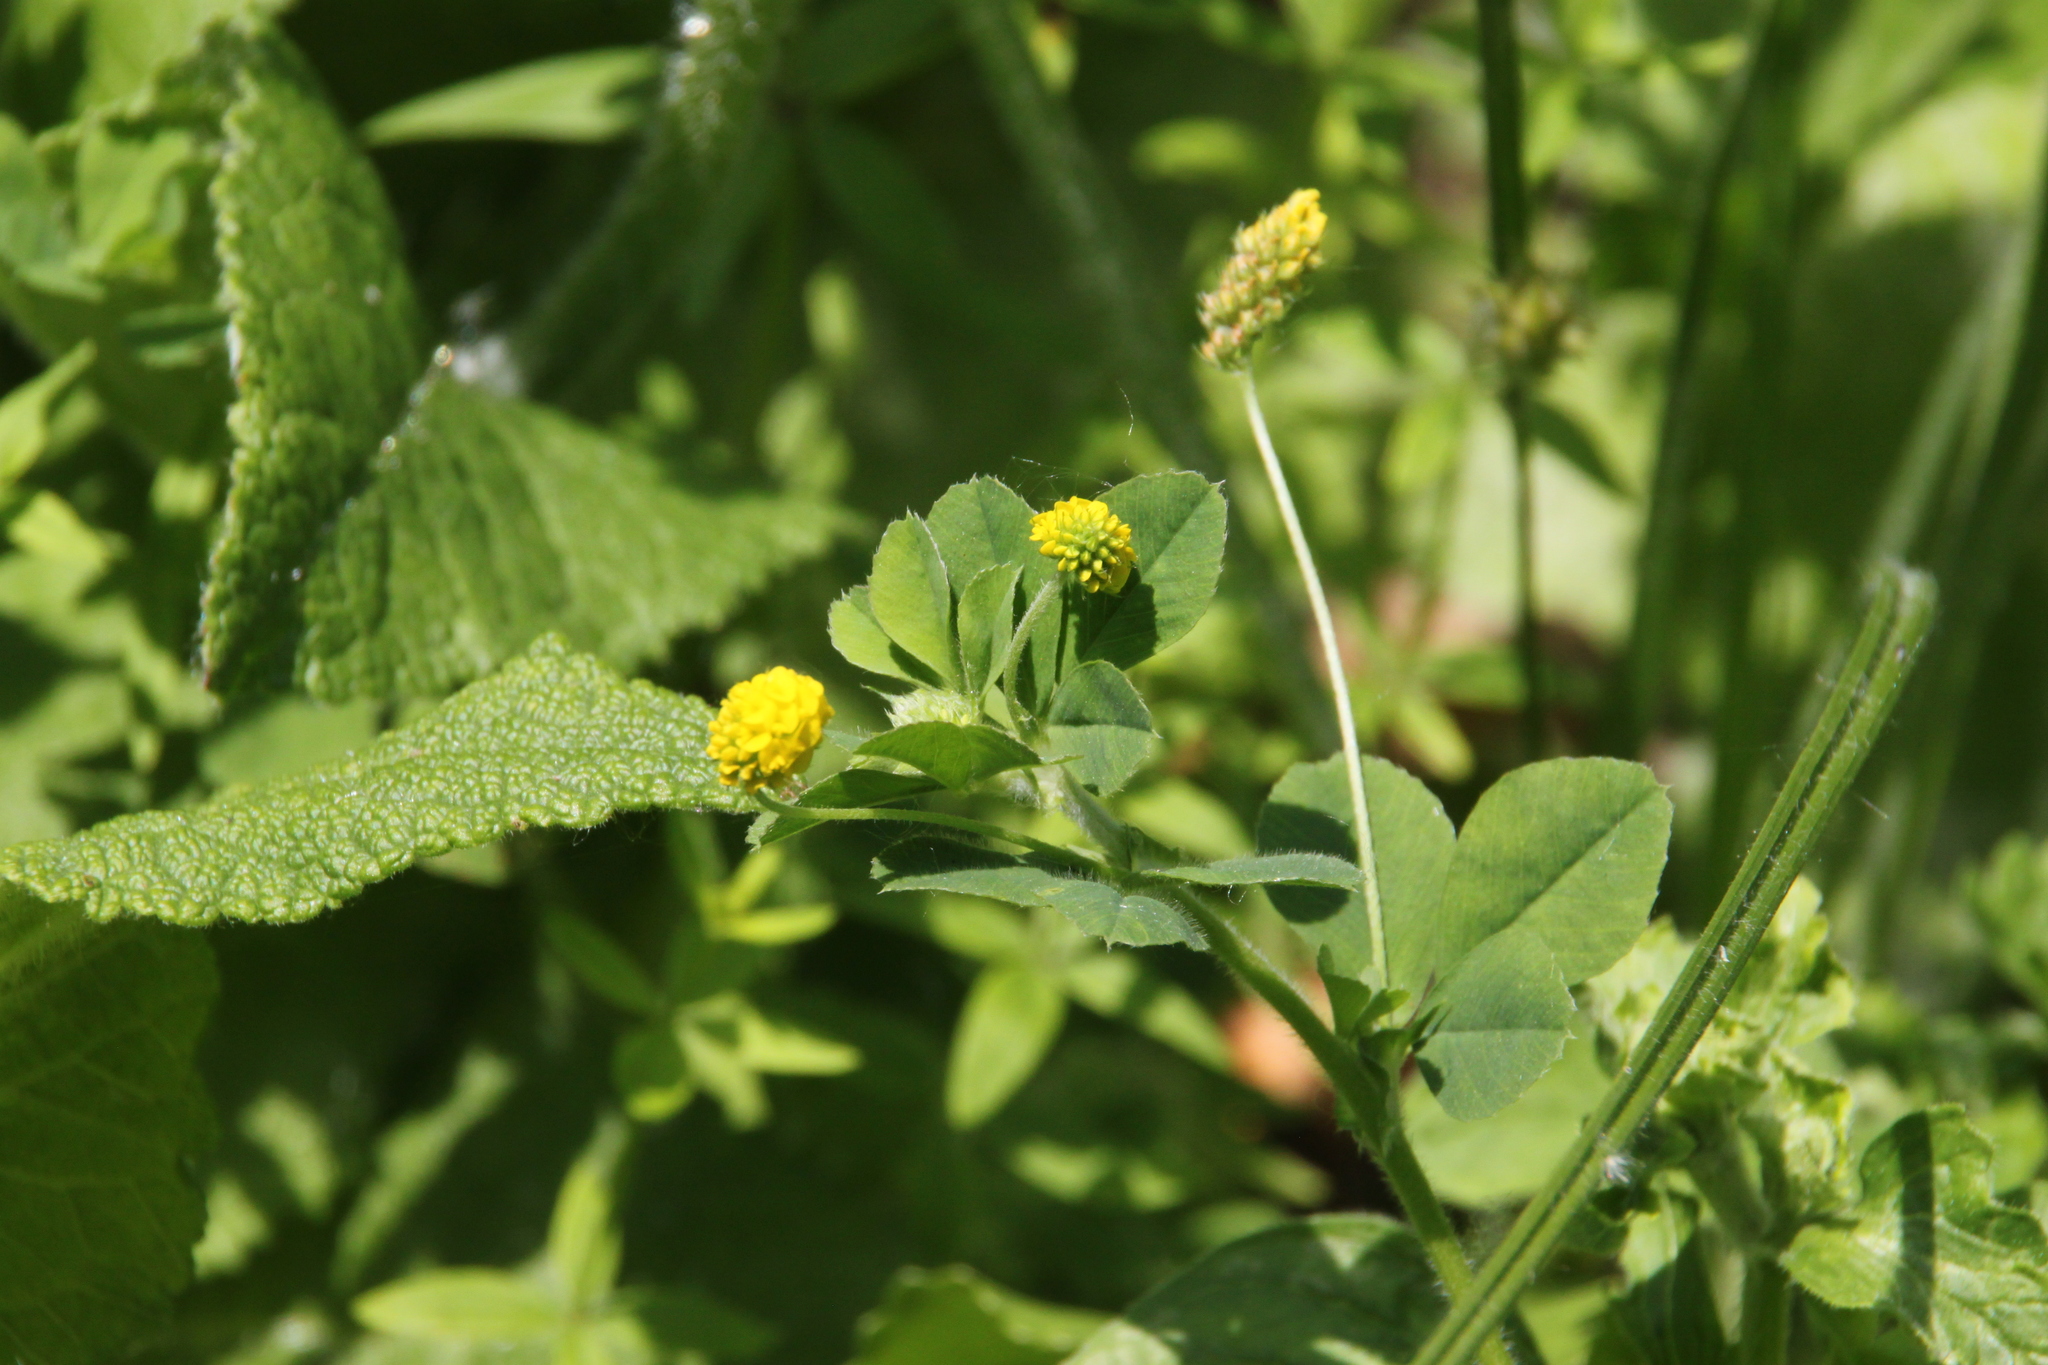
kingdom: Plantae
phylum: Tracheophyta
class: Magnoliopsida
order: Fabales
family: Fabaceae
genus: Medicago
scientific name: Medicago lupulina
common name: Black medick
